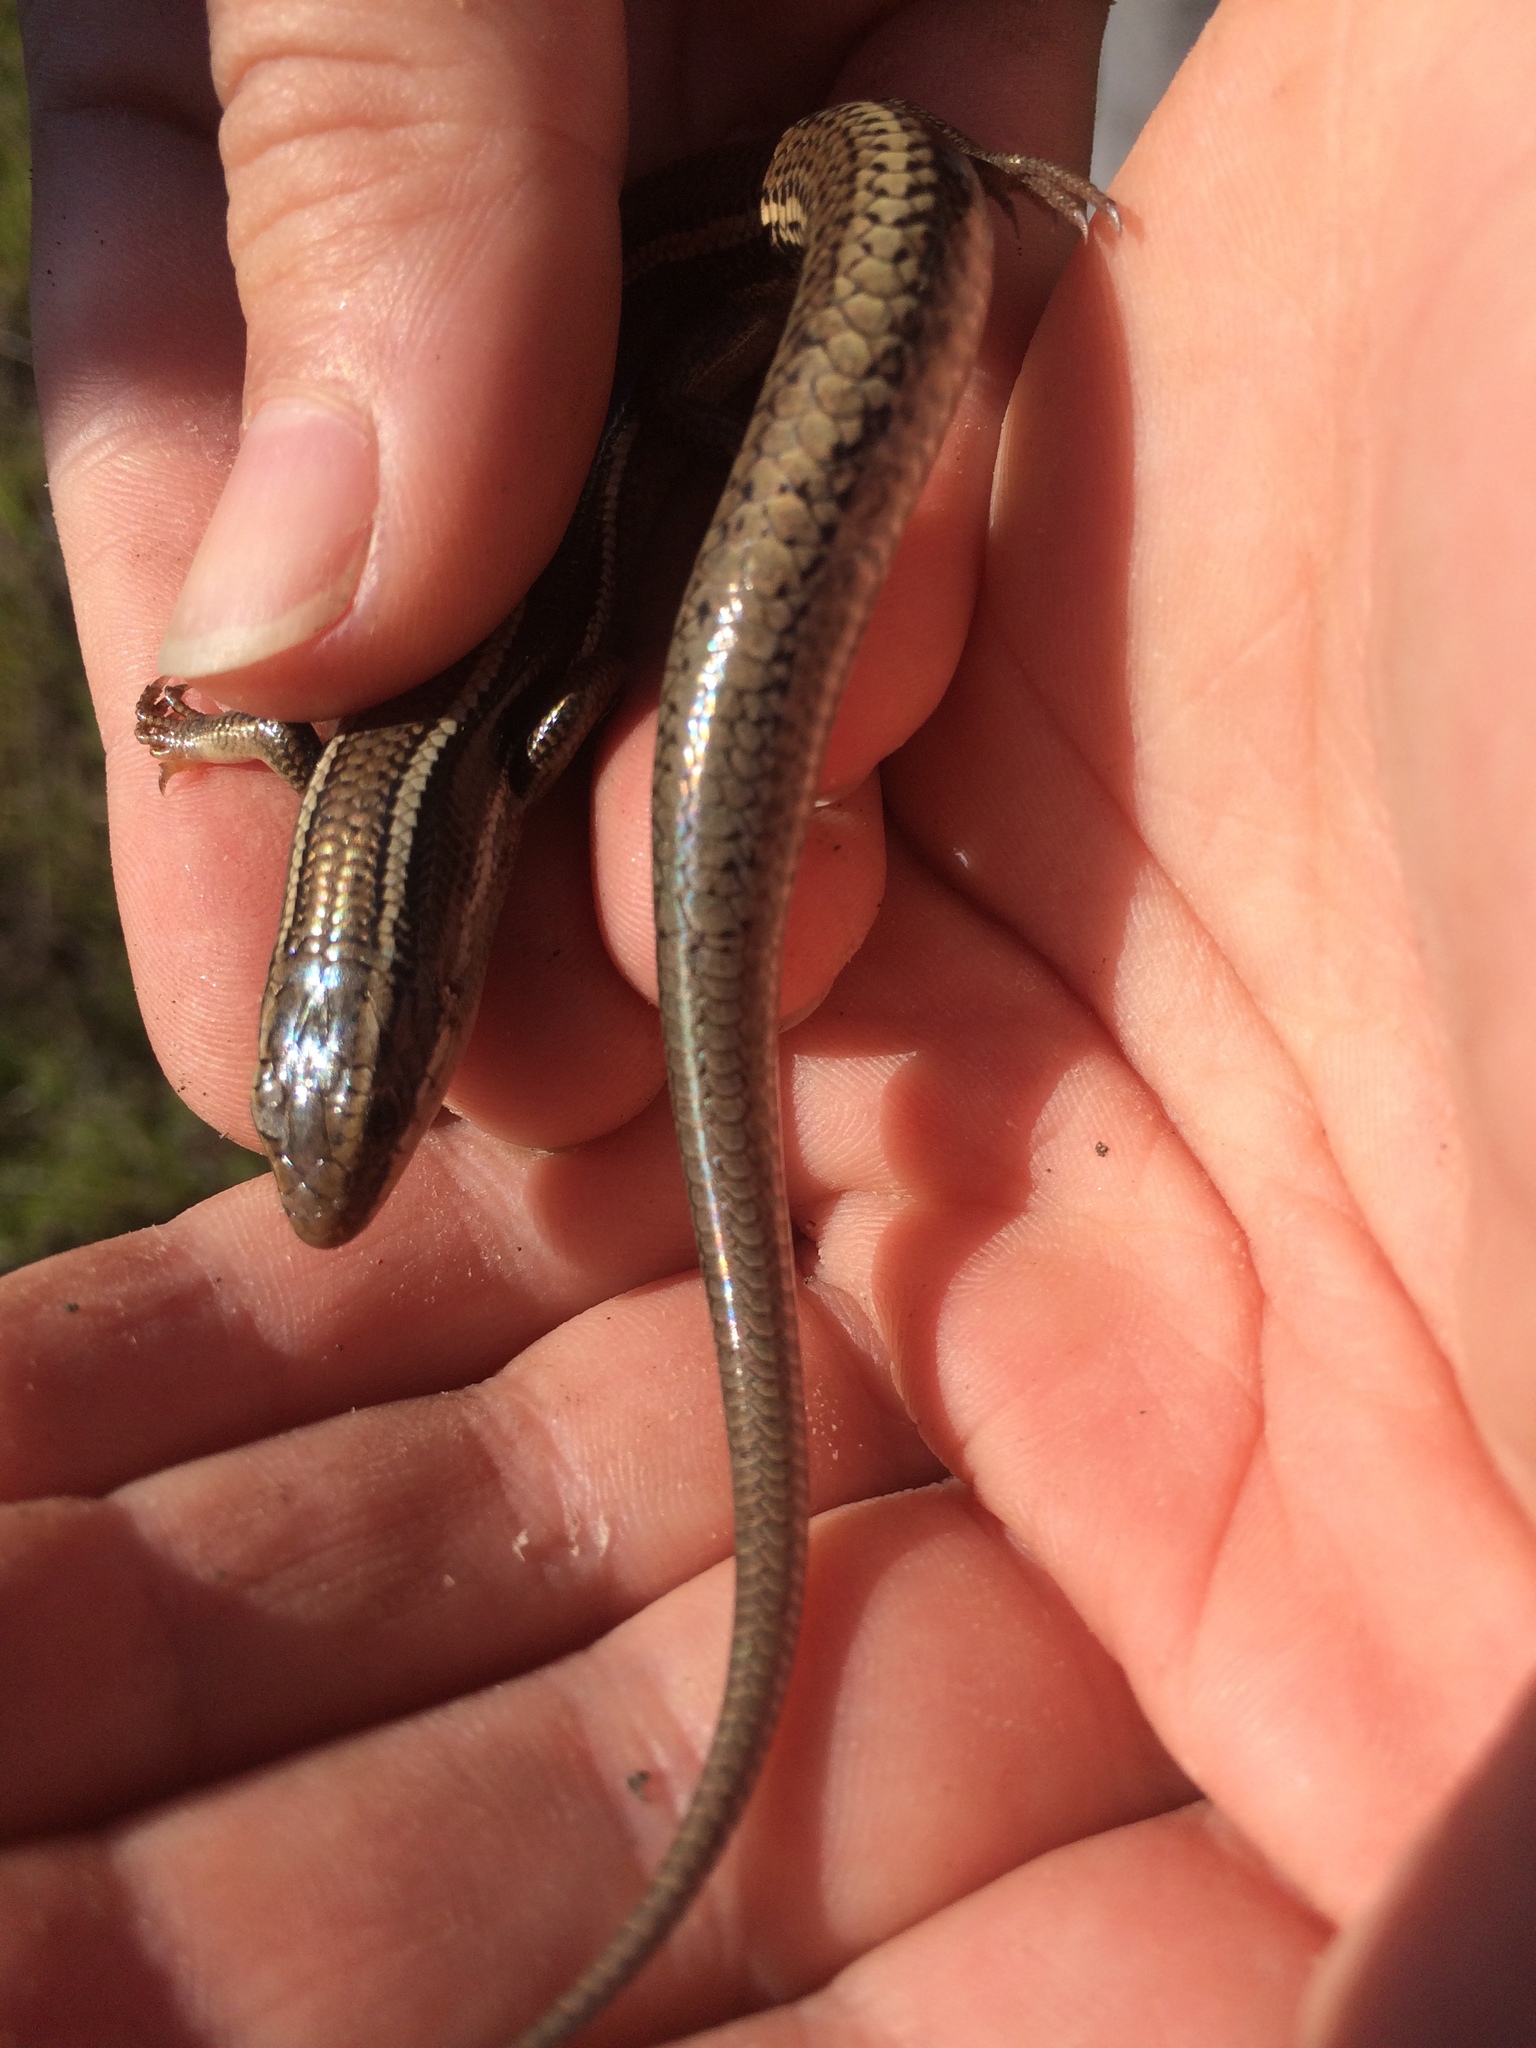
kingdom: Animalia
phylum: Chordata
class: Squamata
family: Scincidae
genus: Plestiodon
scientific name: Plestiodon skiltonianus
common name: Coronado island skink [interparietalis]
